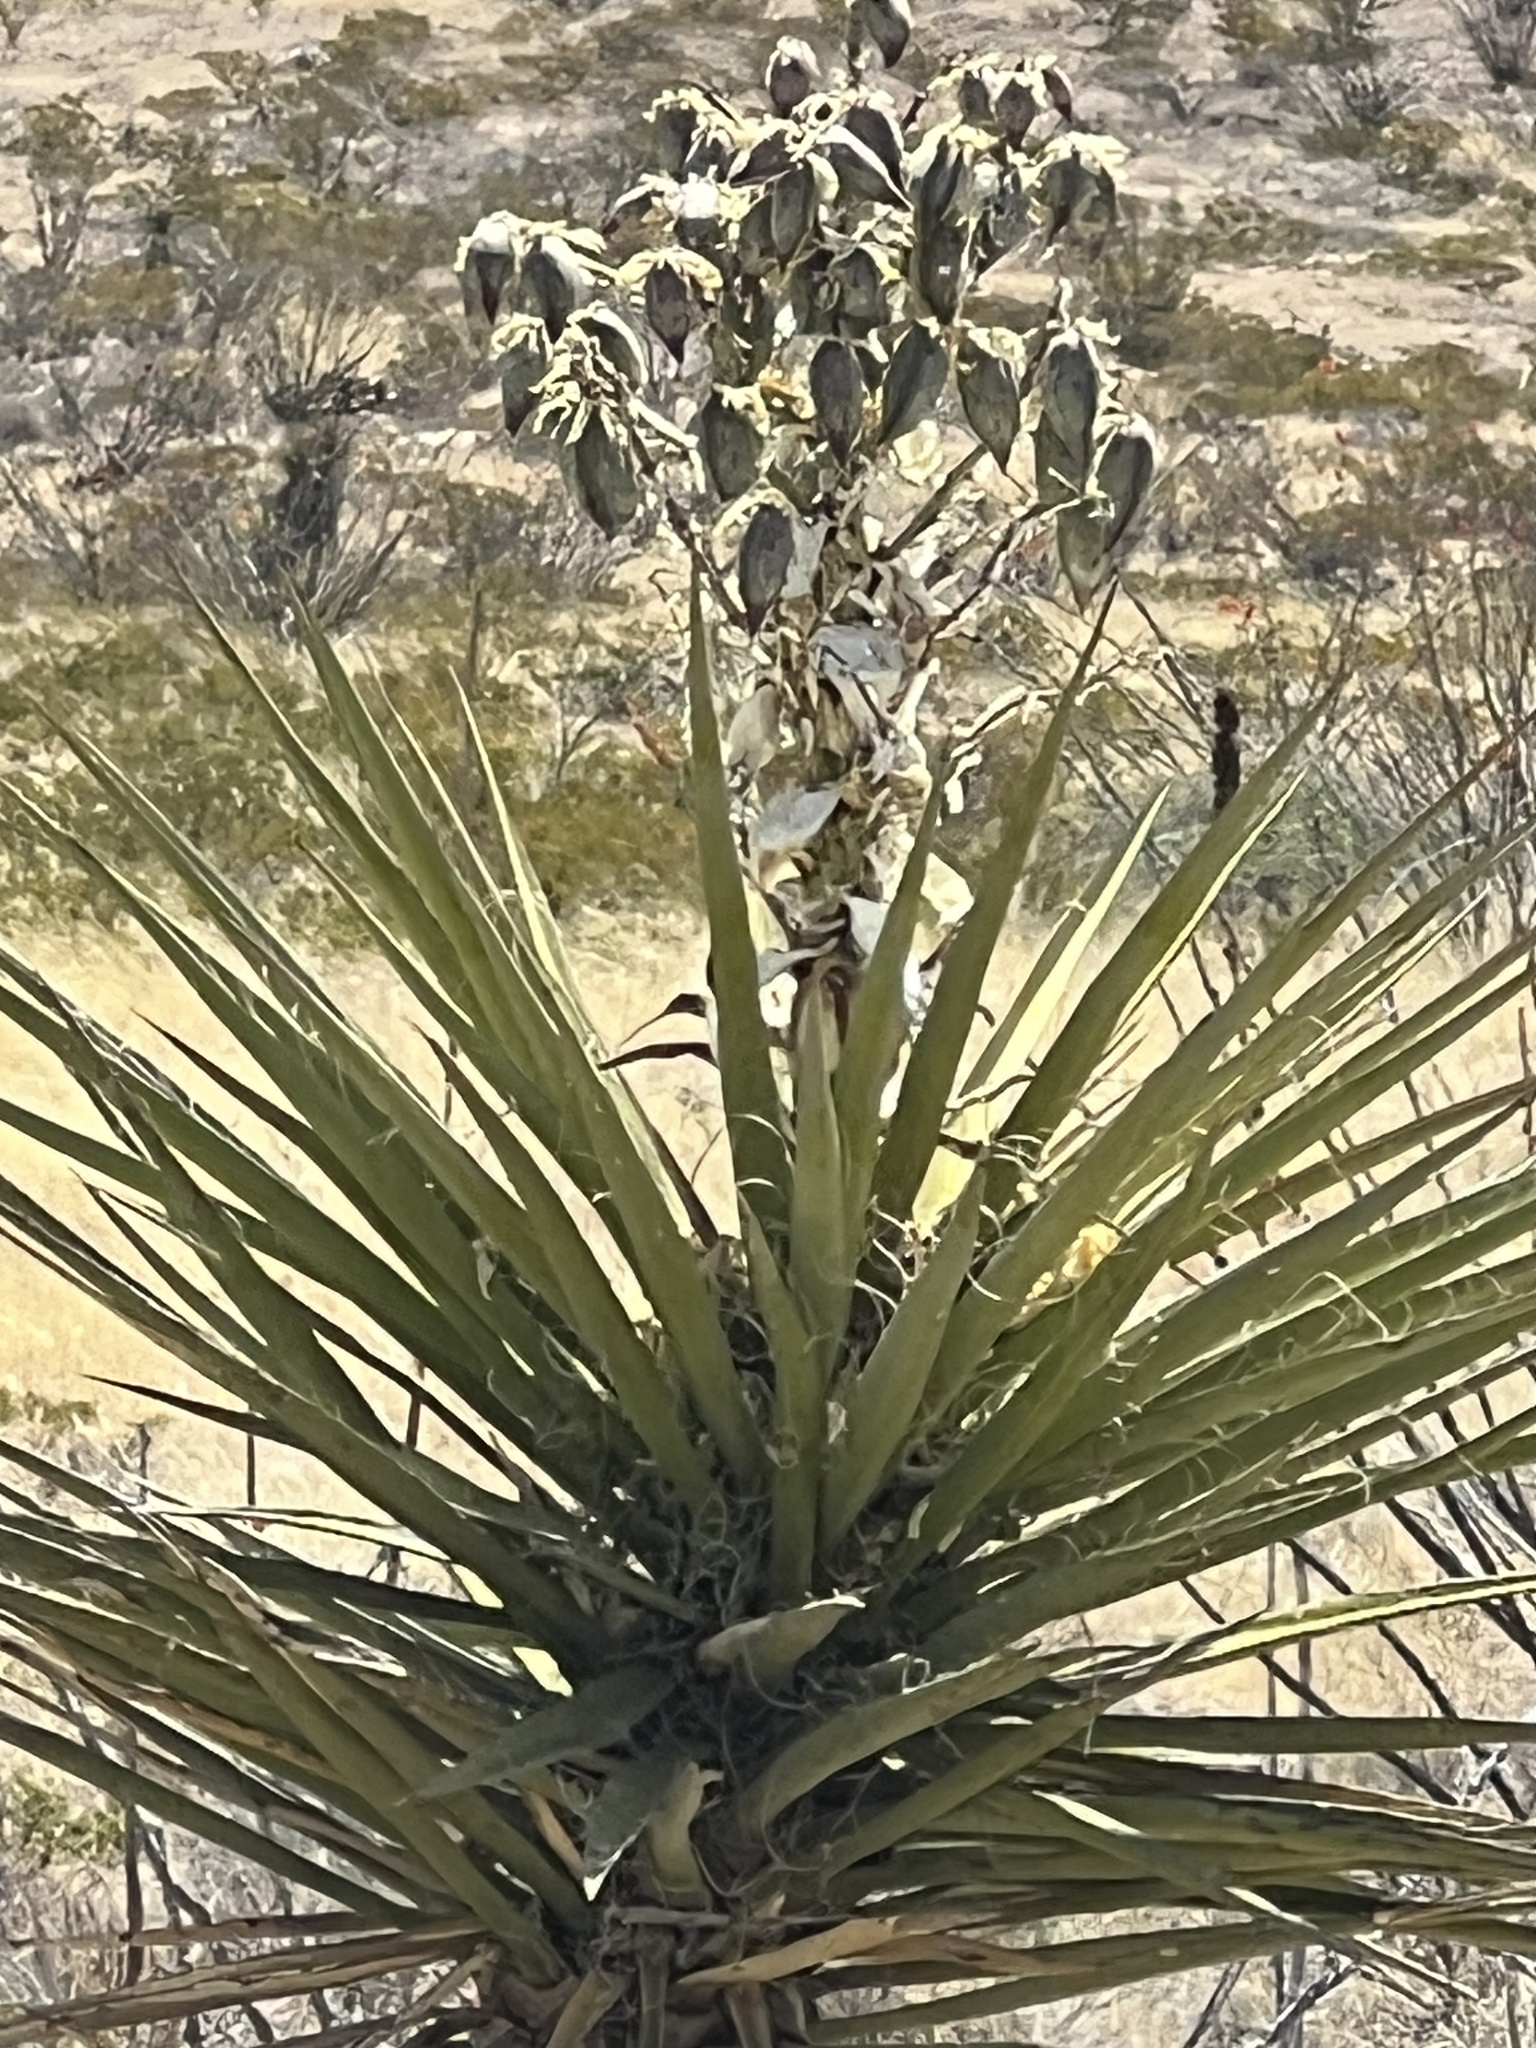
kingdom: Plantae
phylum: Tracheophyta
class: Liliopsida
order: Asparagales
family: Asparagaceae
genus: Yucca
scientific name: Yucca treculiana
